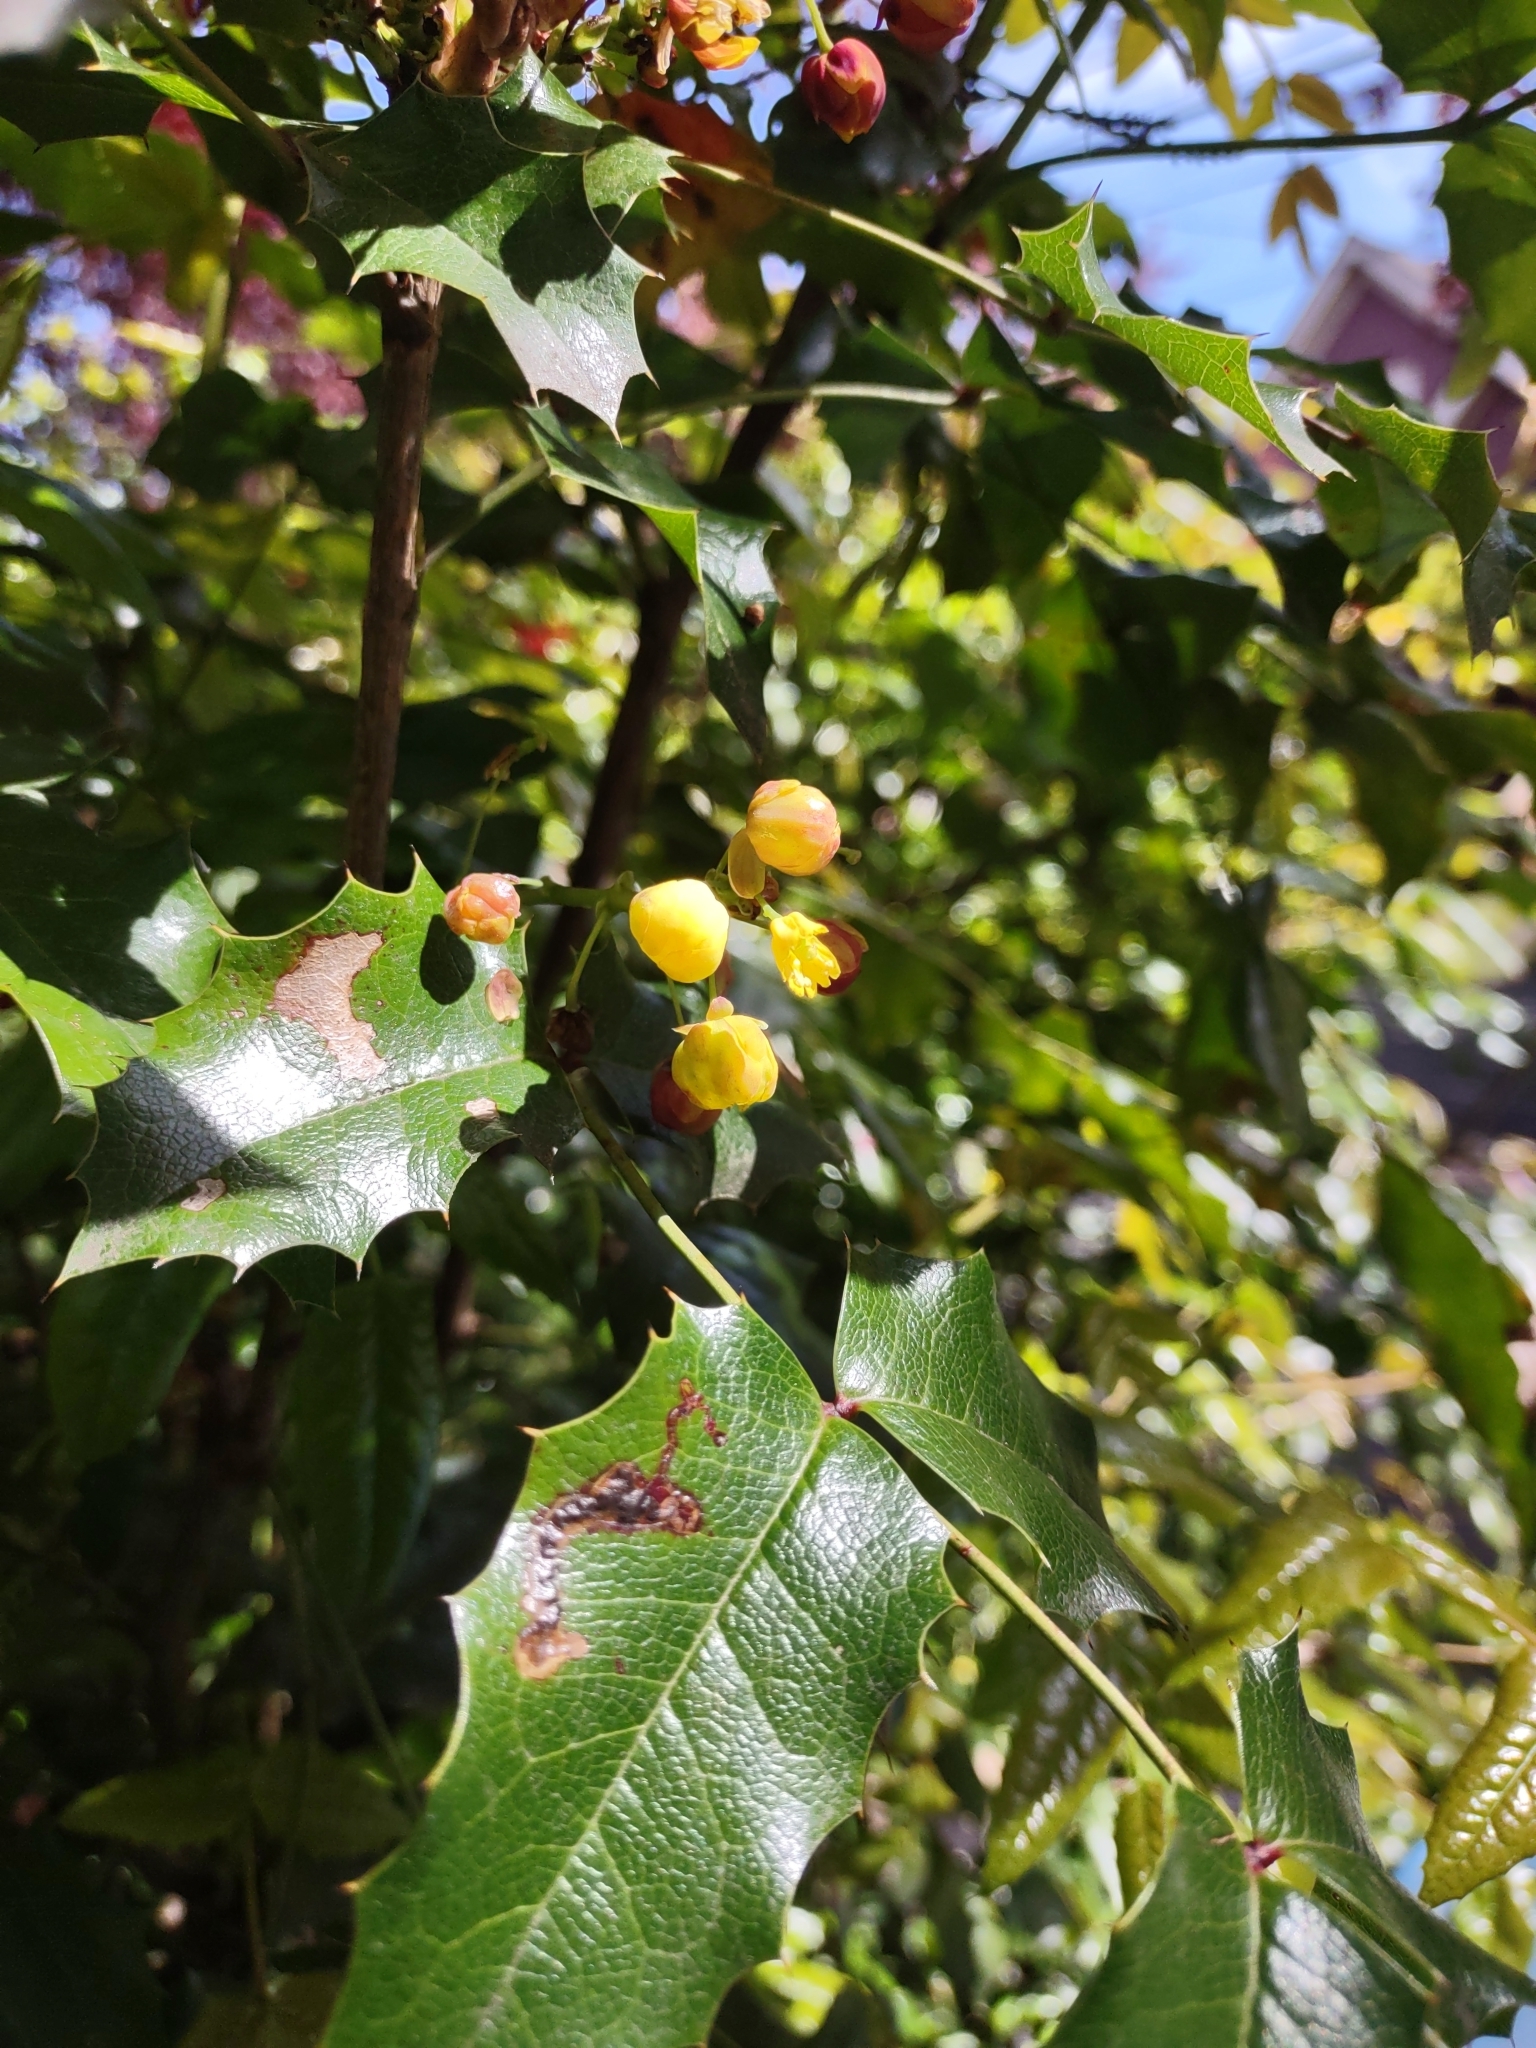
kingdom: Plantae
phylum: Tracheophyta
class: Magnoliopsida
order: Ranunculales
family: Berberidaceae
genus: Mahonia
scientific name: Mahonia aquifolium
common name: Oregon-grape
